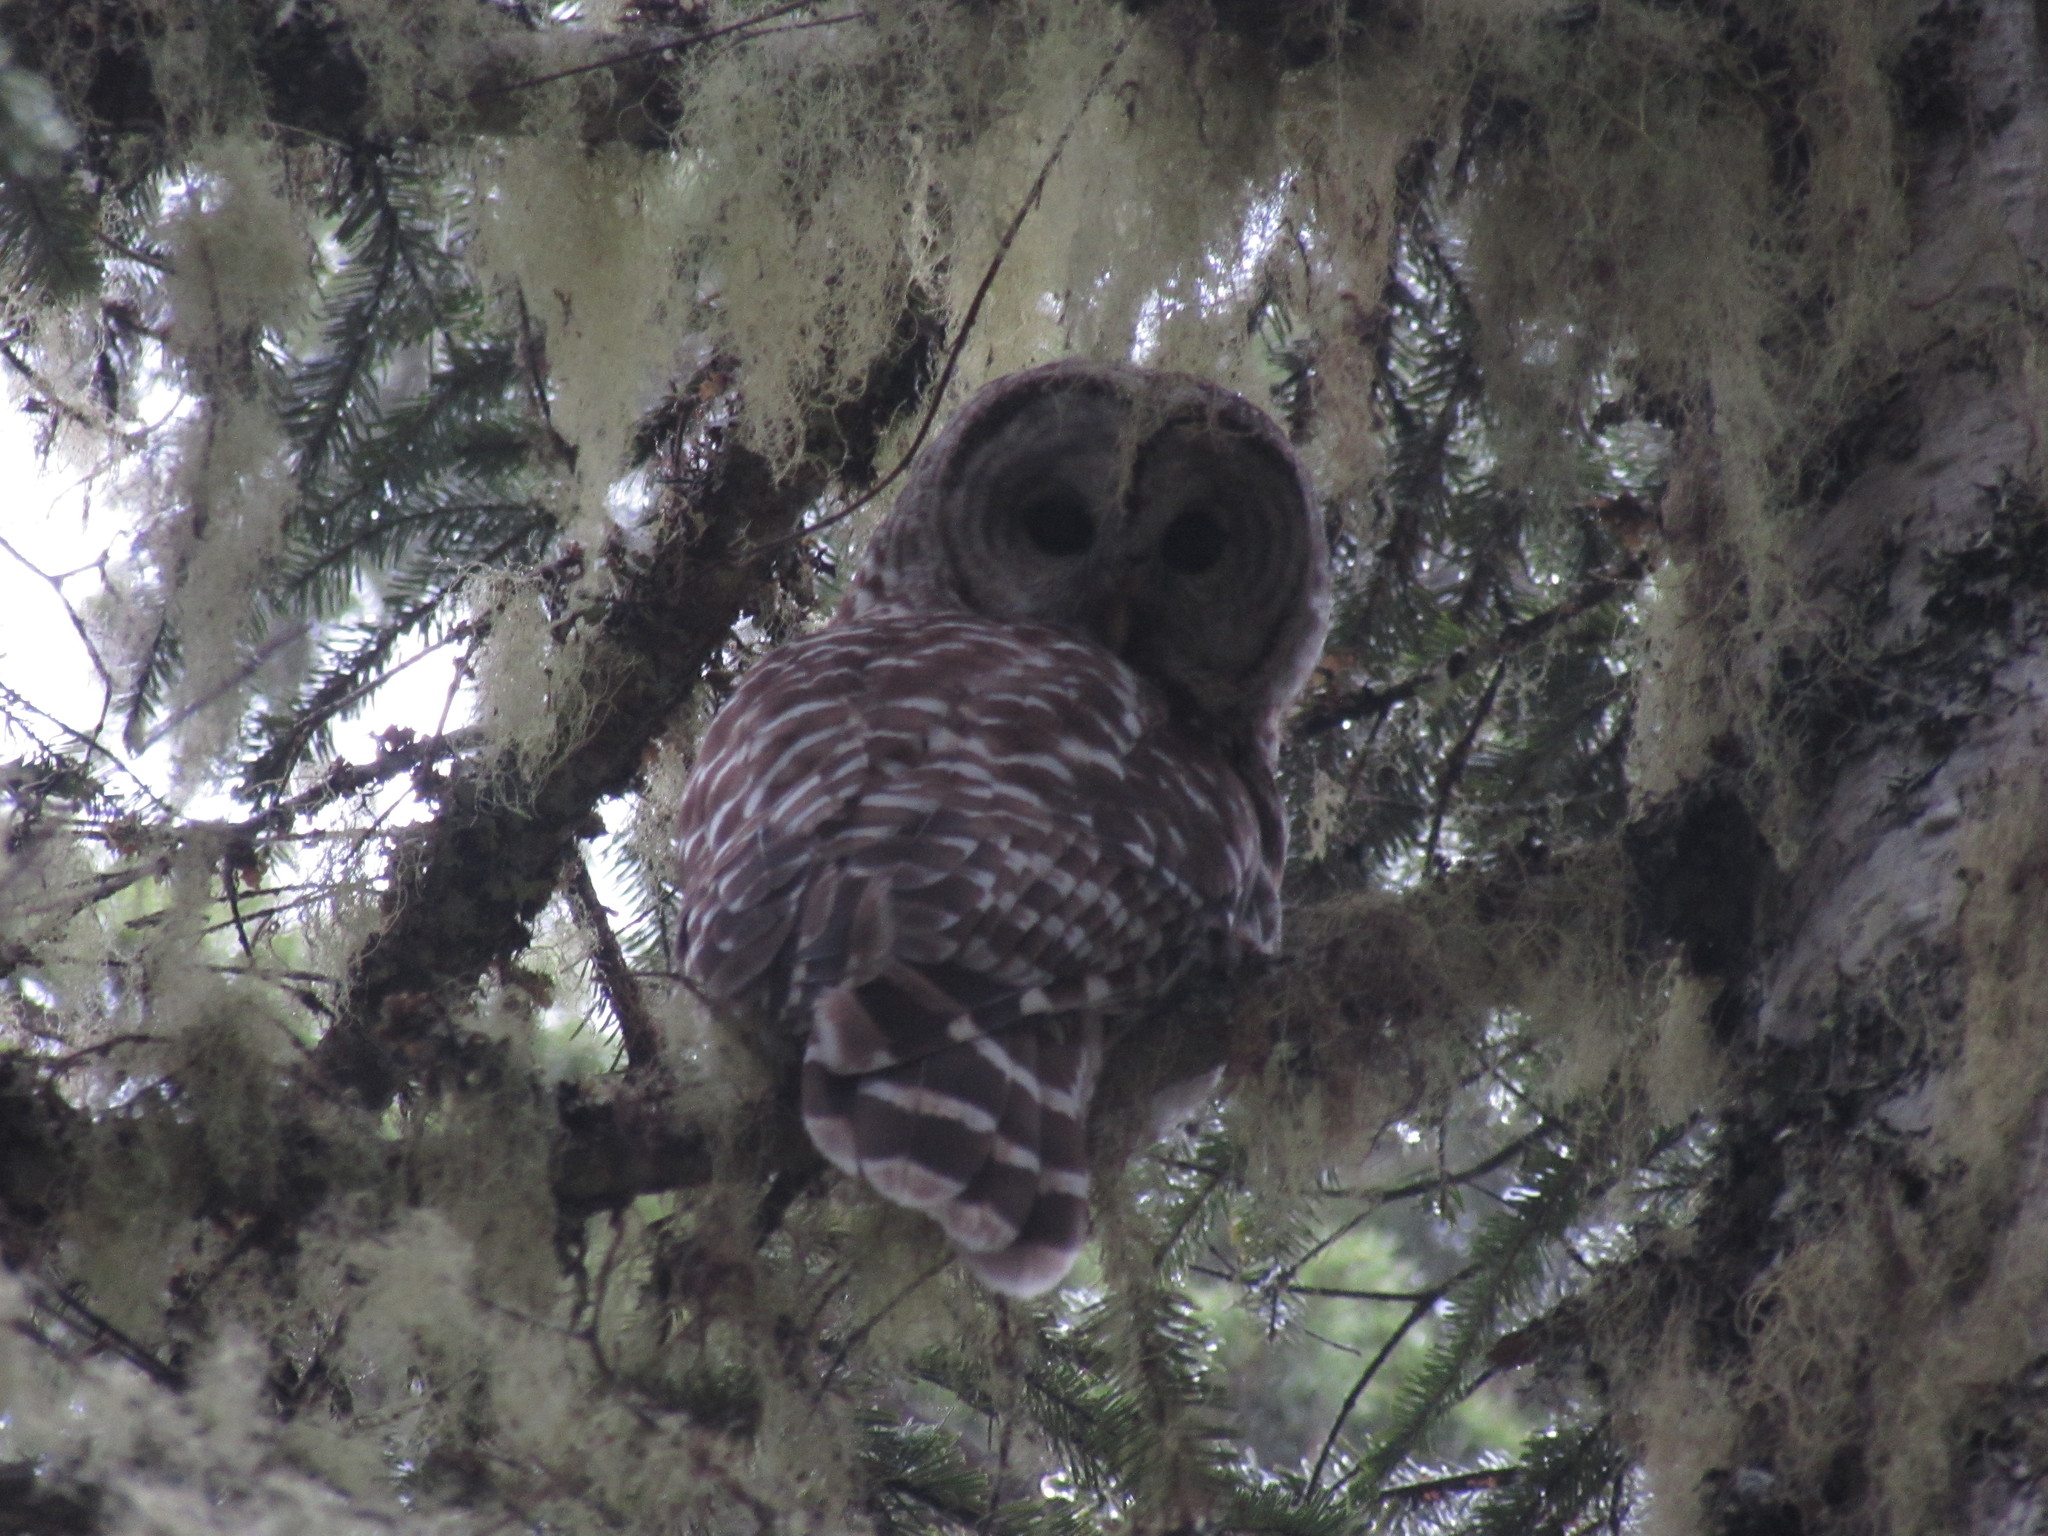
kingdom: Animalia
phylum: Chordata
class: Aves
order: Strigiformes
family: Strigidae
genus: Strix
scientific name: Strix varia
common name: Barred owl
